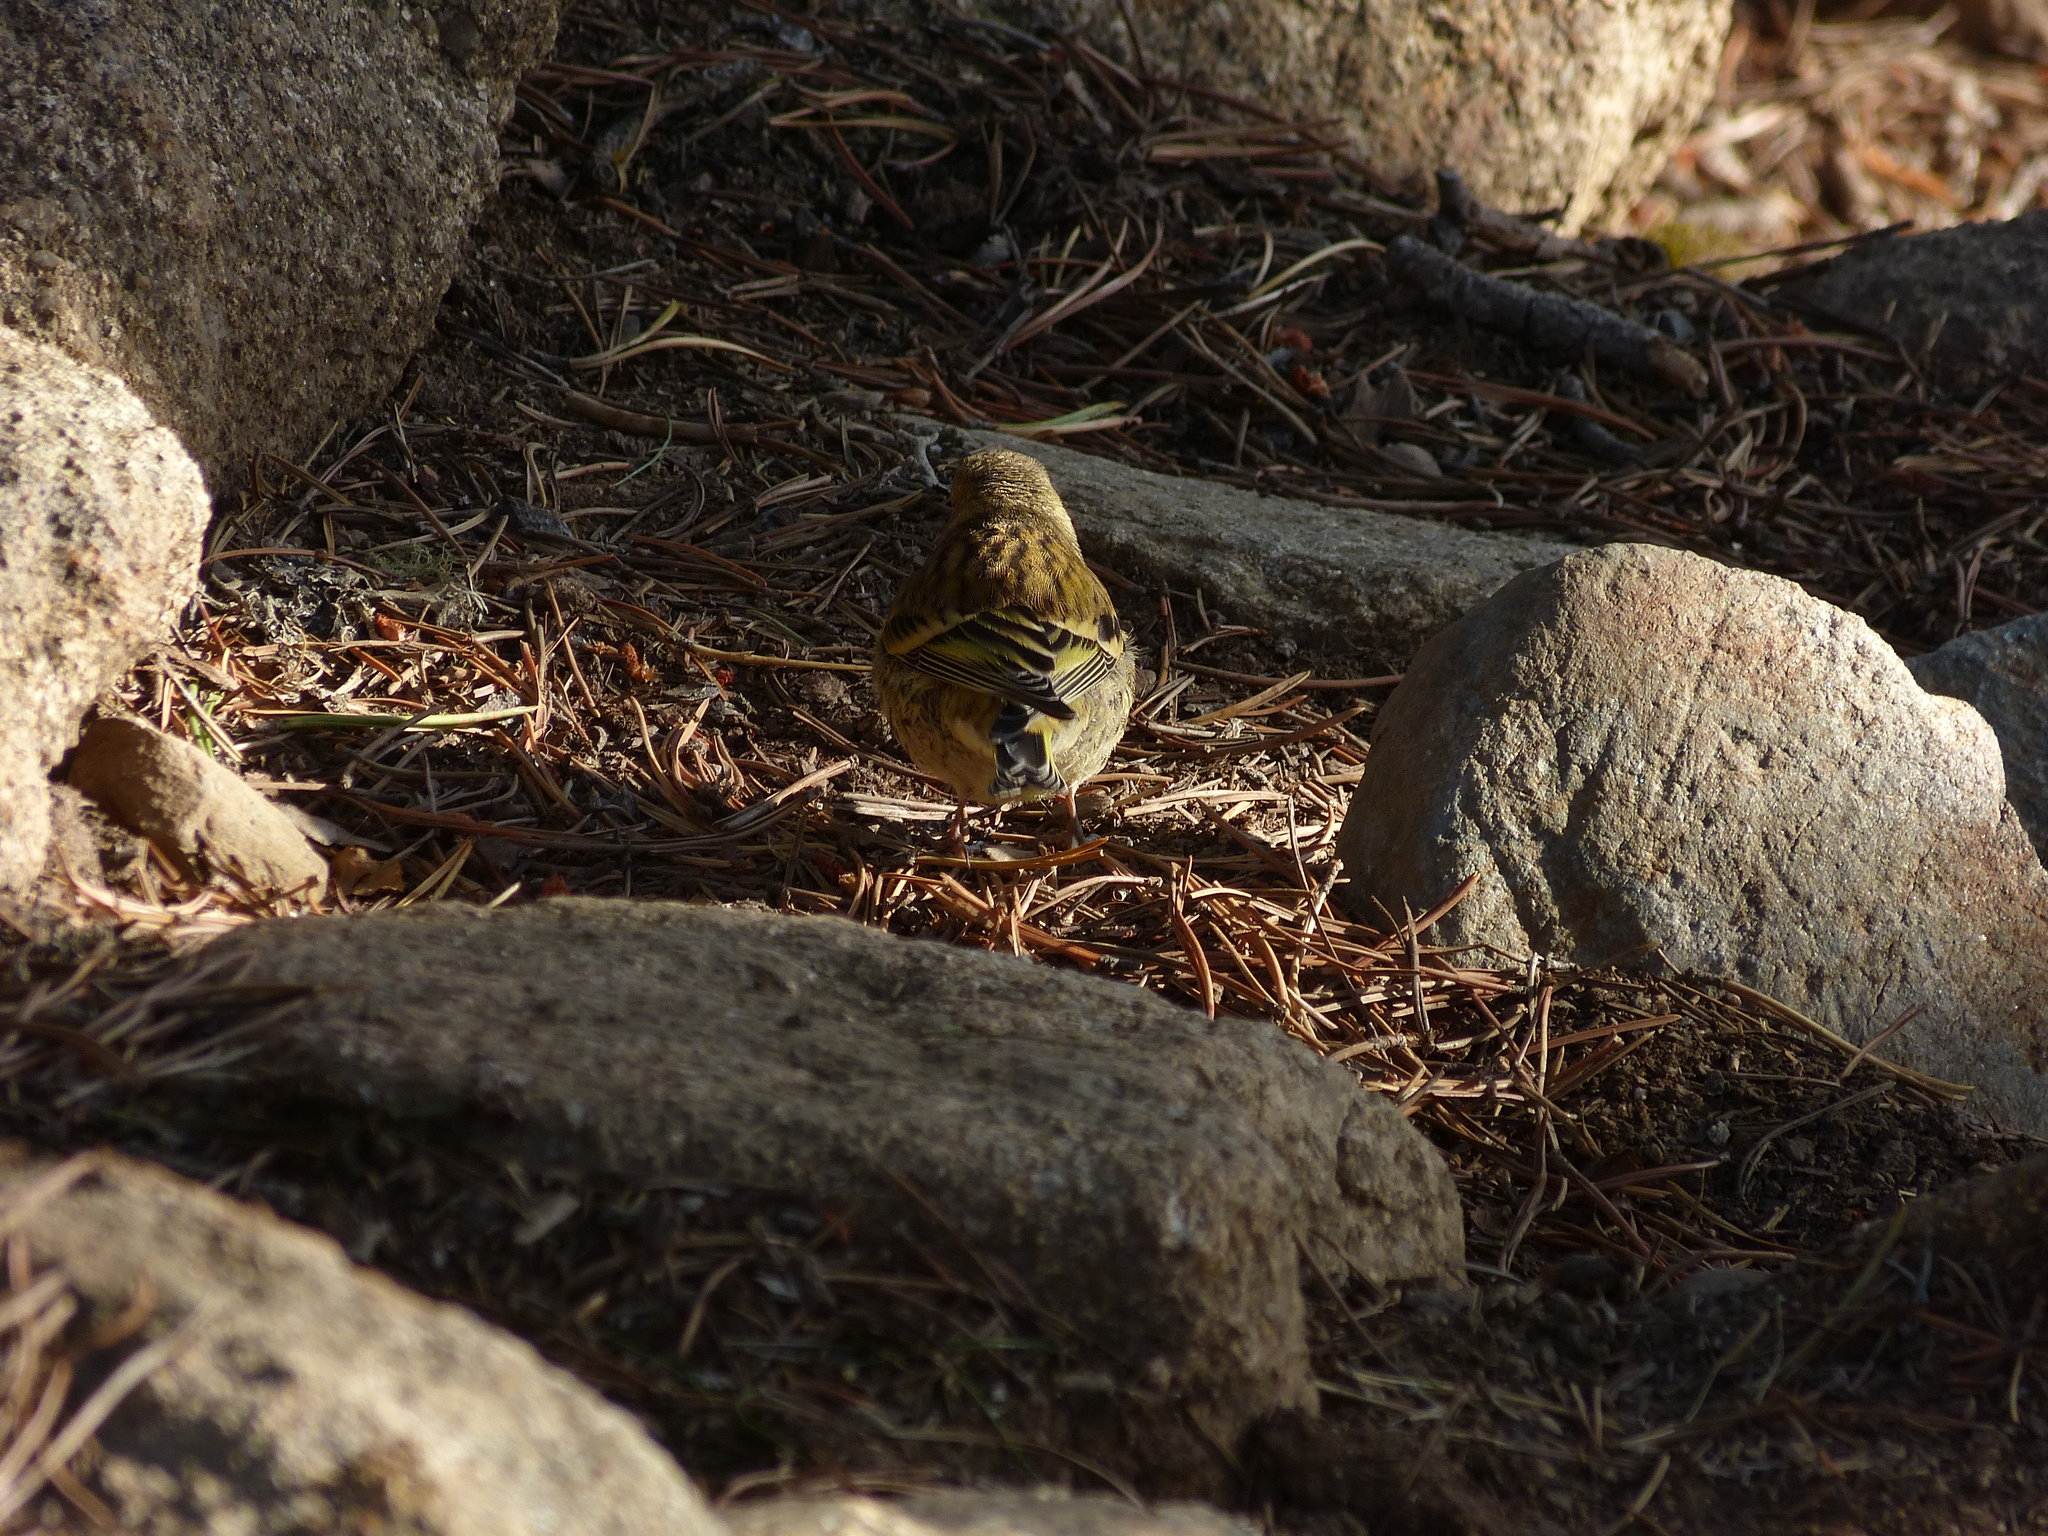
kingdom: Animalia
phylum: Chordata
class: Aves
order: Passeriformes
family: Fringillidae
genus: Carduelis
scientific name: Carduelis citrinella
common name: Citril finch
